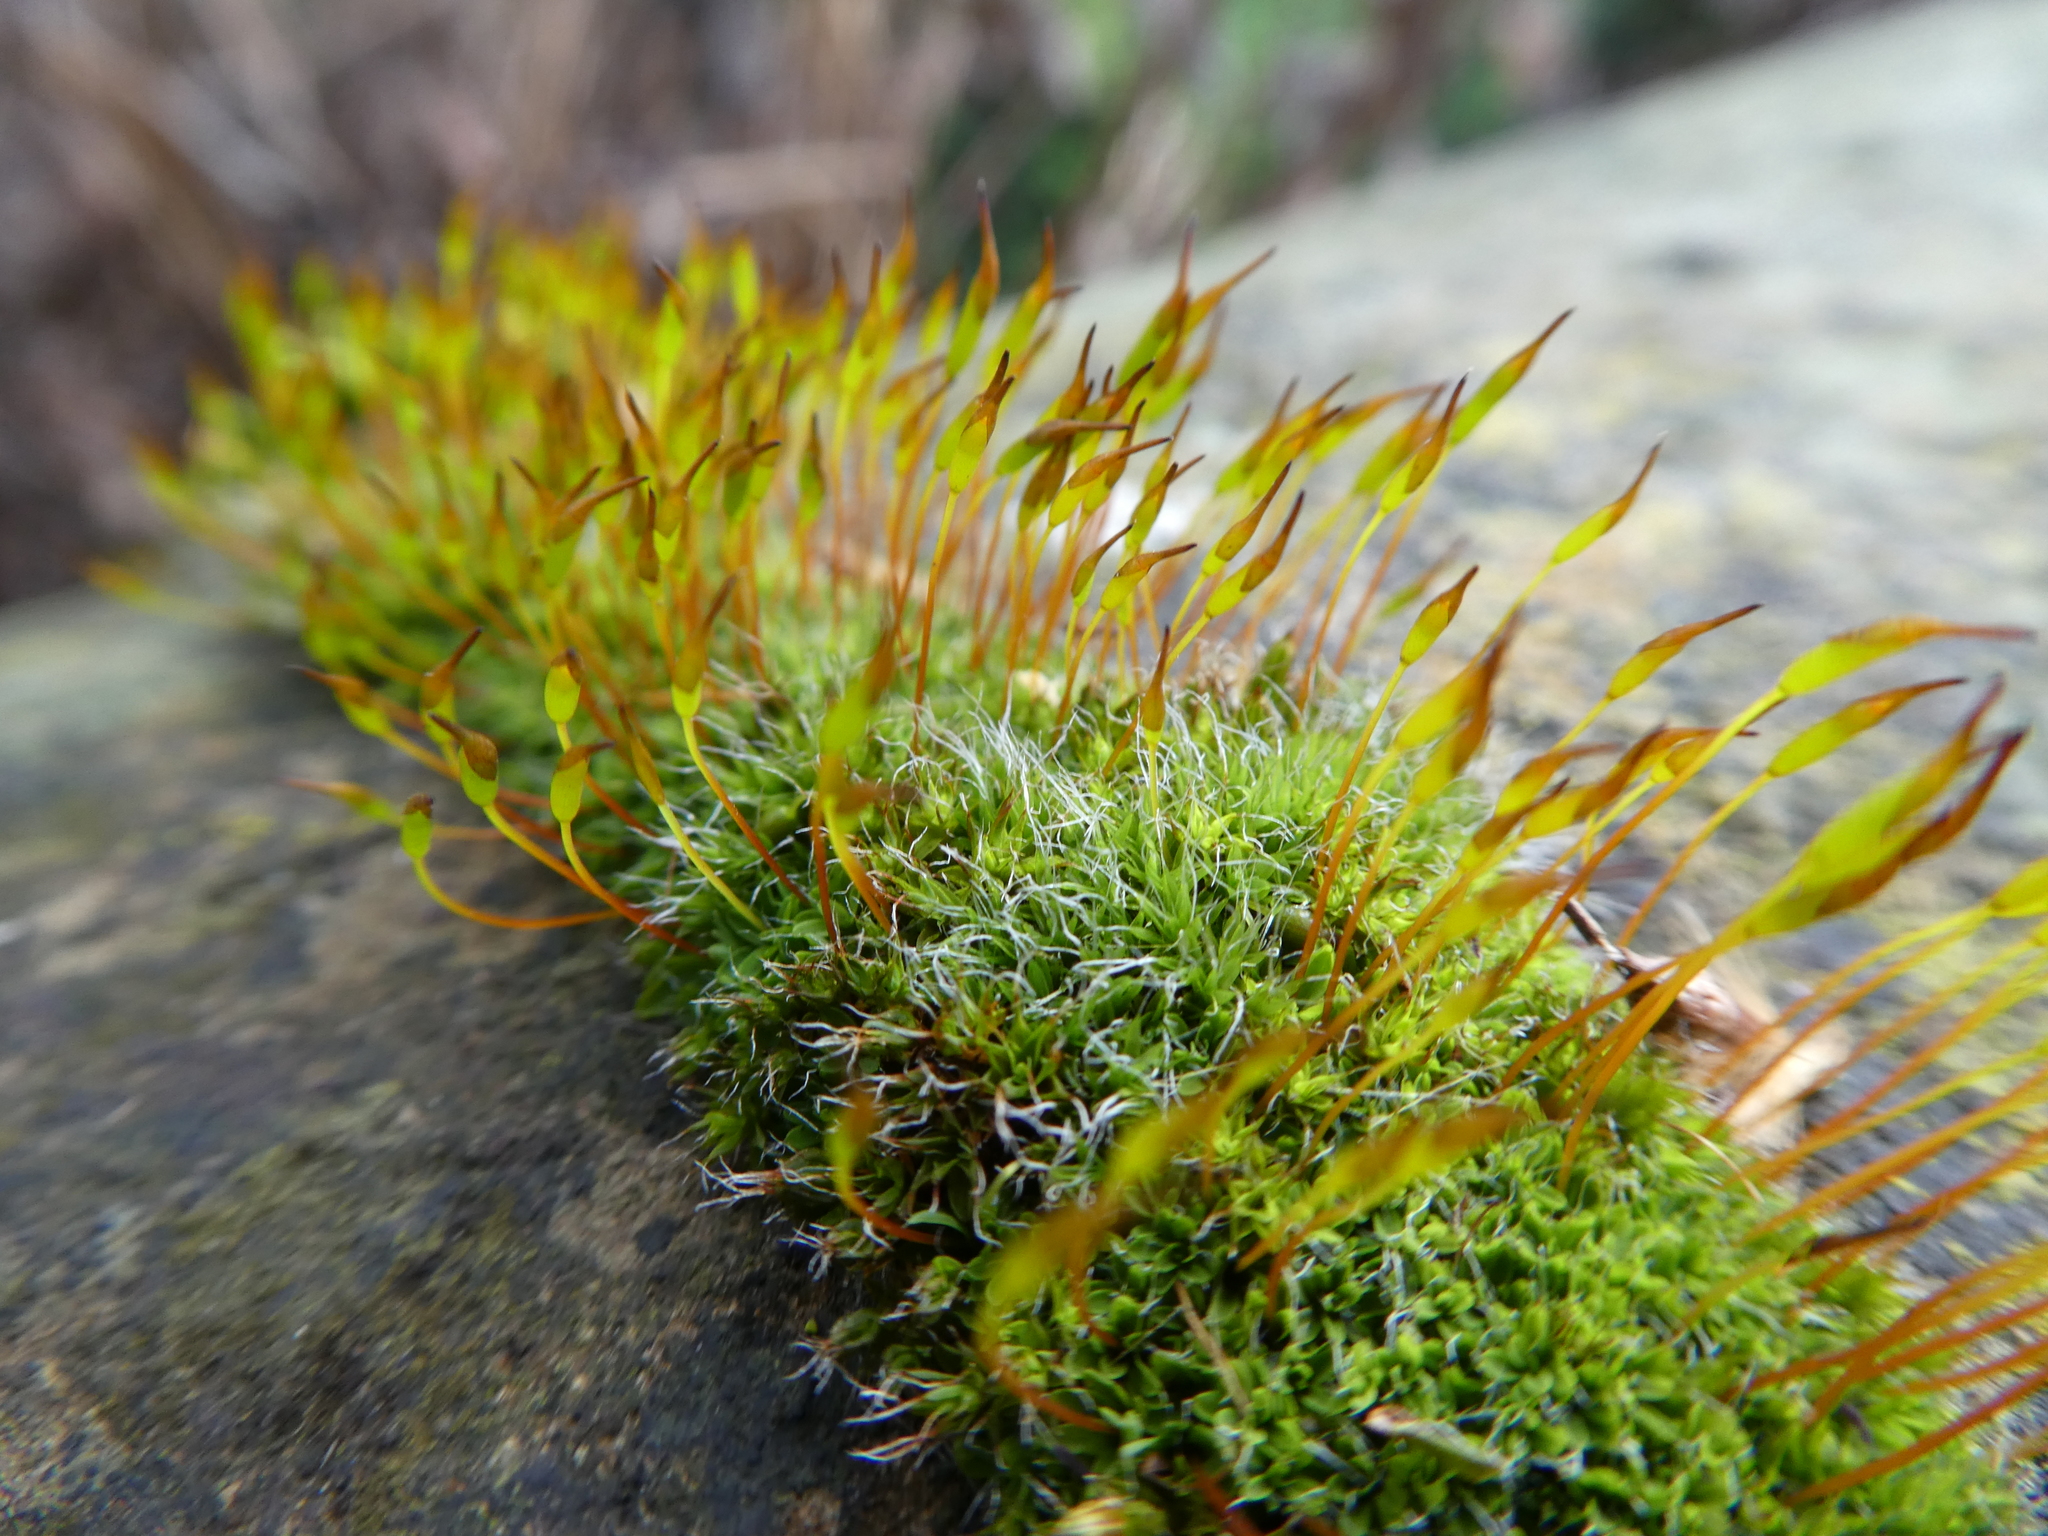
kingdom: Plantae
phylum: Bryophyta
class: Bryopsida
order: Pottiales
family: Pottiaceae
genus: Tortula
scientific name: Tortula muralis
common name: Wall screw-moss
